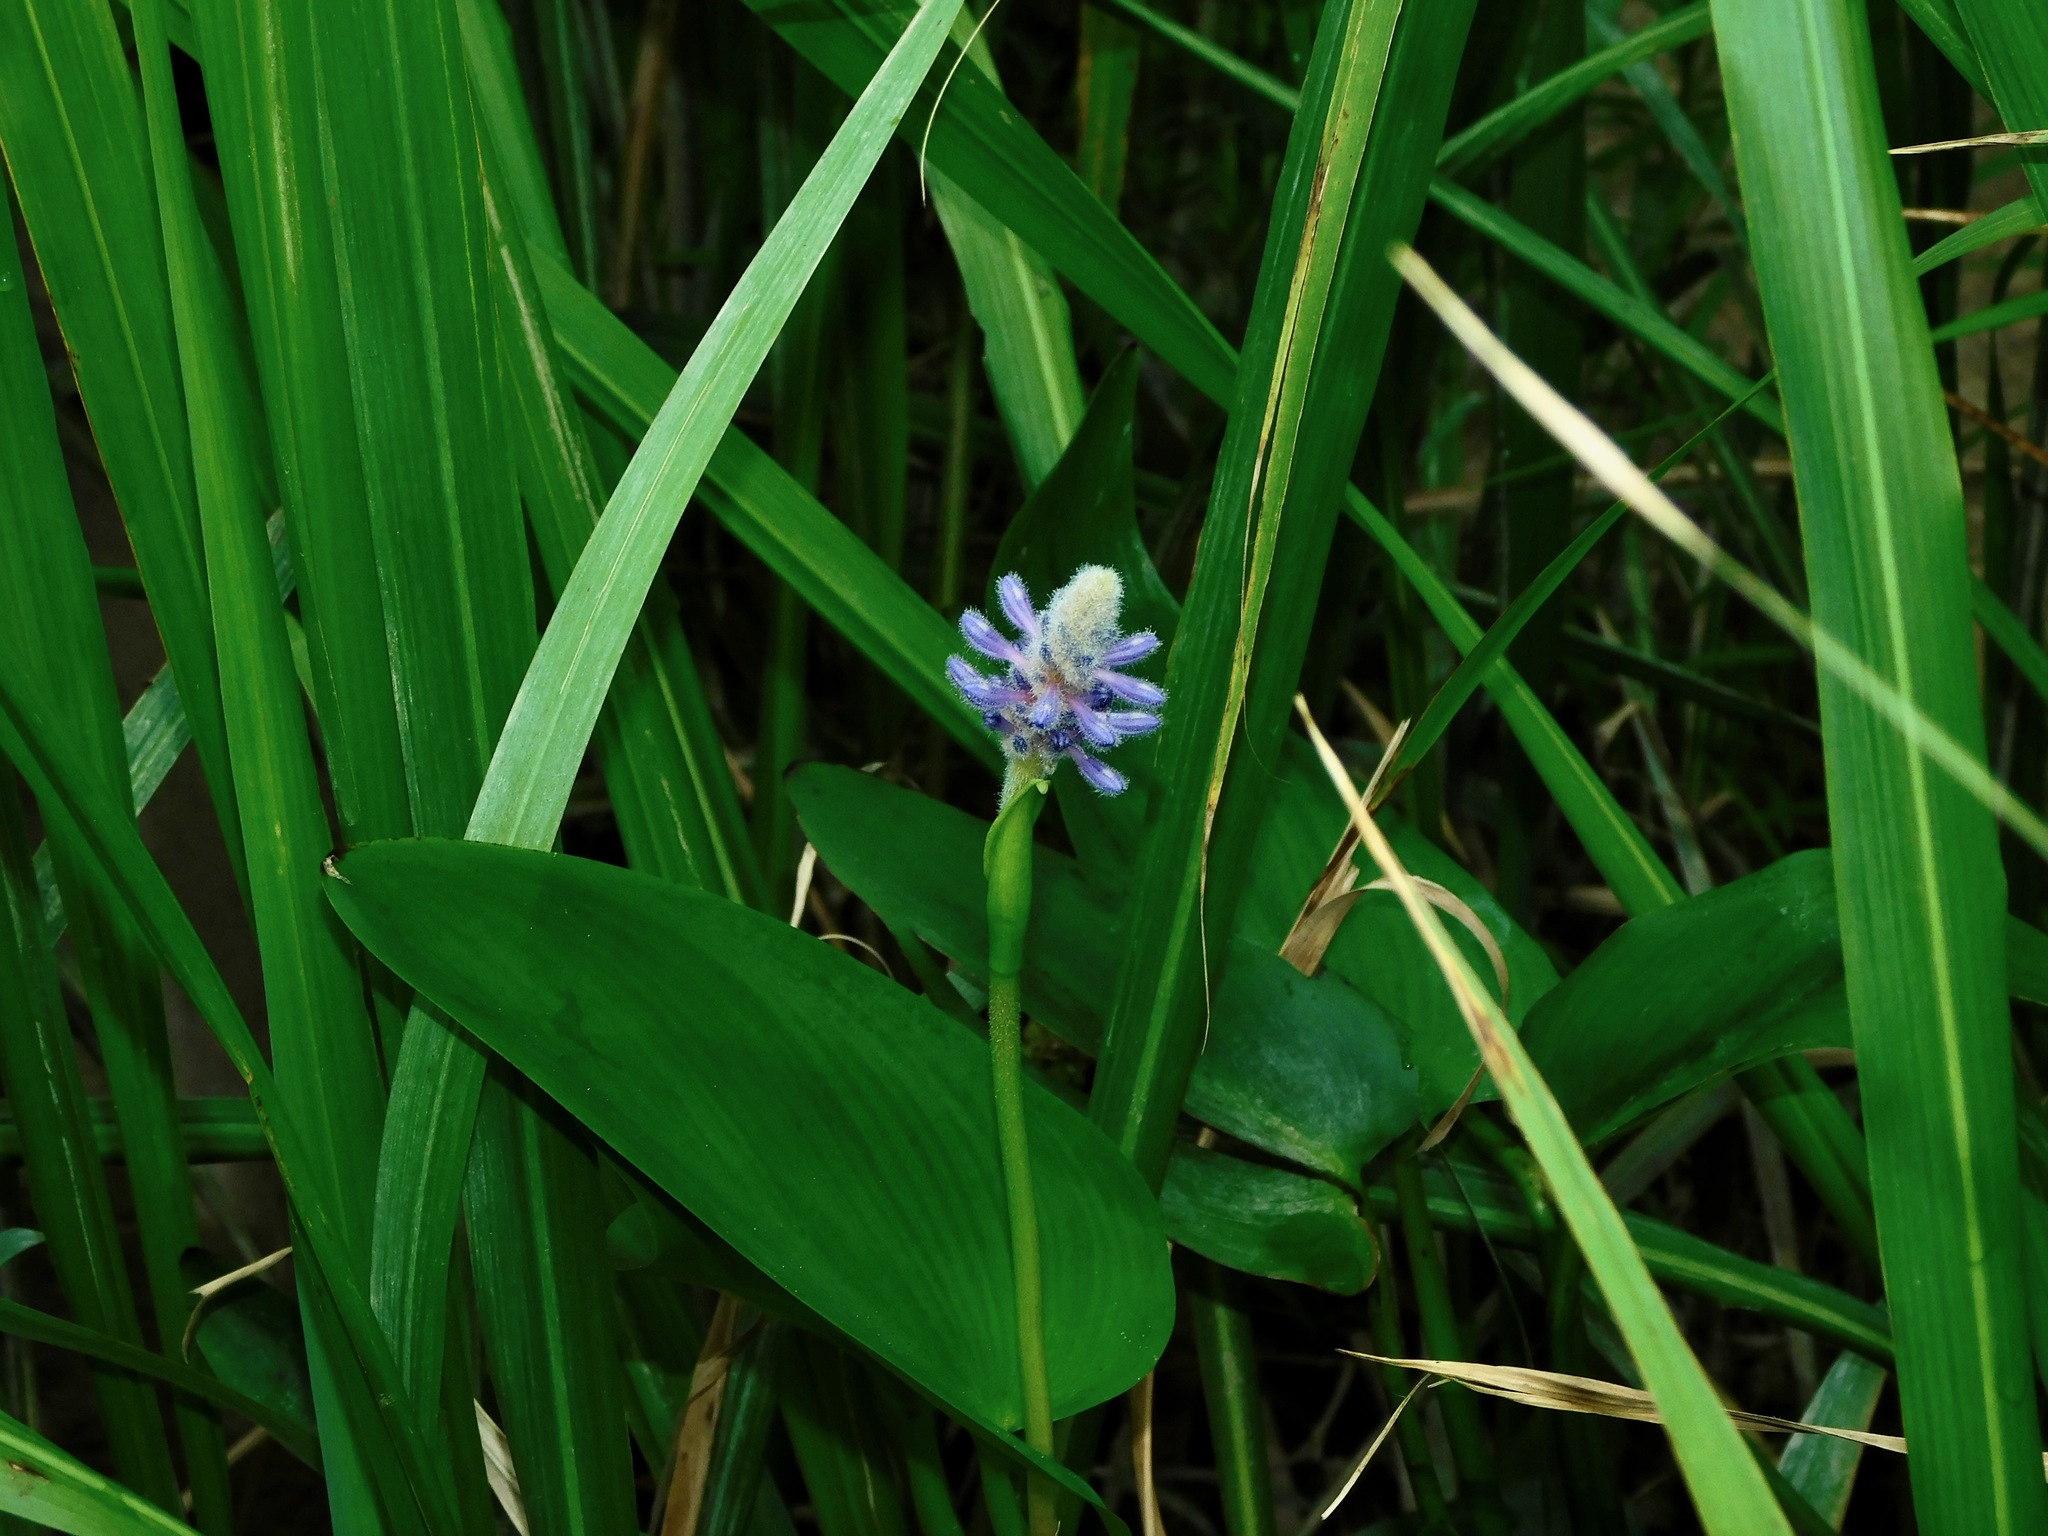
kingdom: Plantae
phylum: Tracheophyta
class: Liliopsida
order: Commelinales
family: Pontederiaceae
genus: Pontederia
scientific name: Pontederia cordata
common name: Pickerelweed
